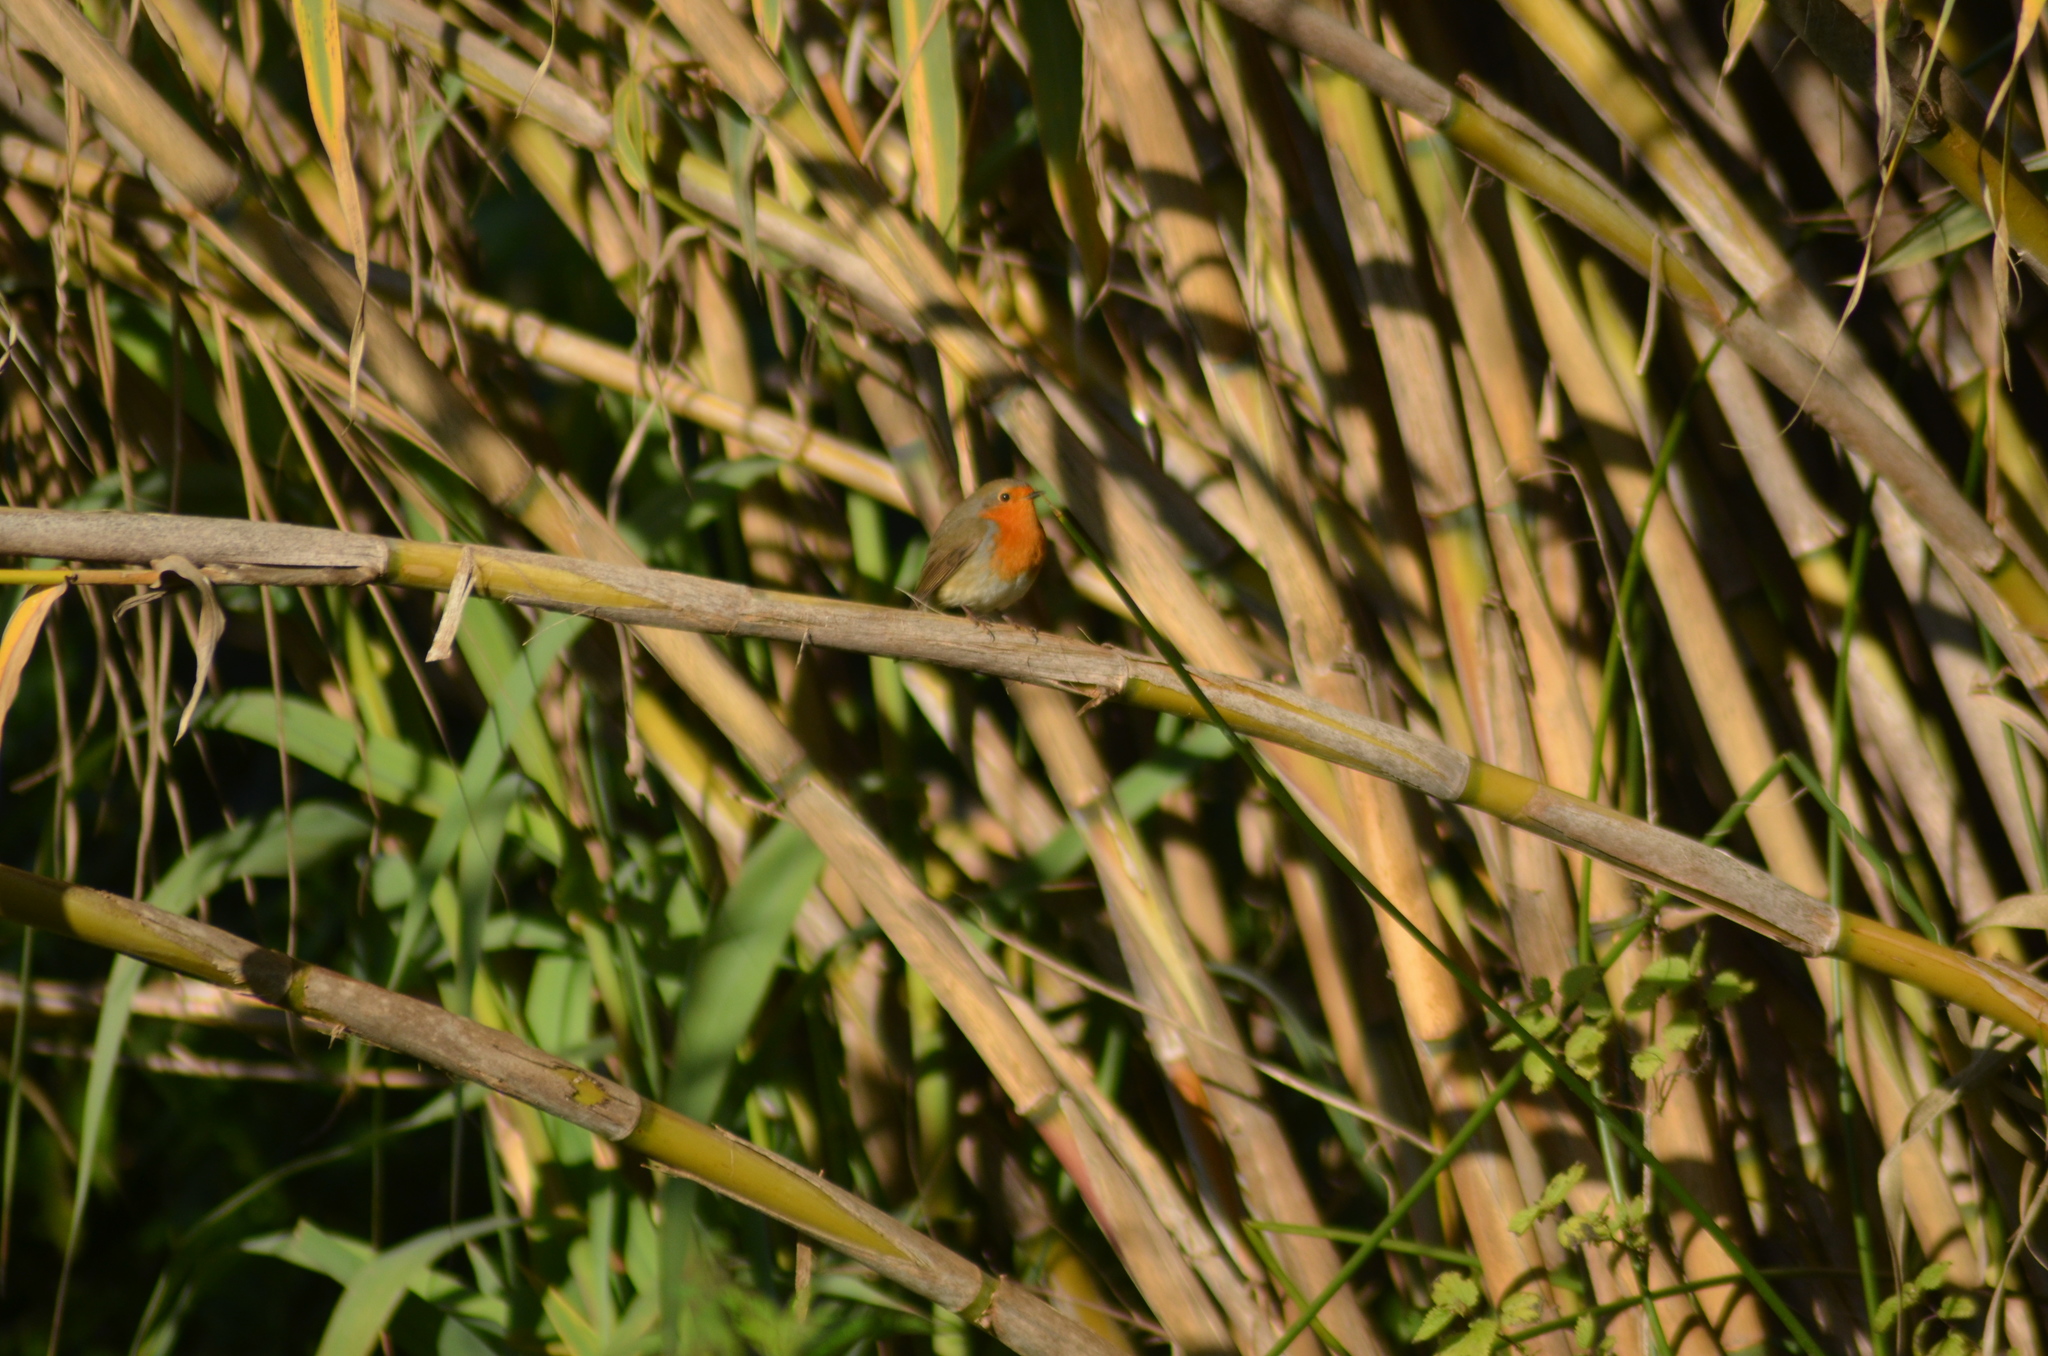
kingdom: Animalia
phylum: Chordata
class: Aves
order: Passeriformes
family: Muscicapidae
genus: Erithacus
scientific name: Erithacus rubecula
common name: European robin
